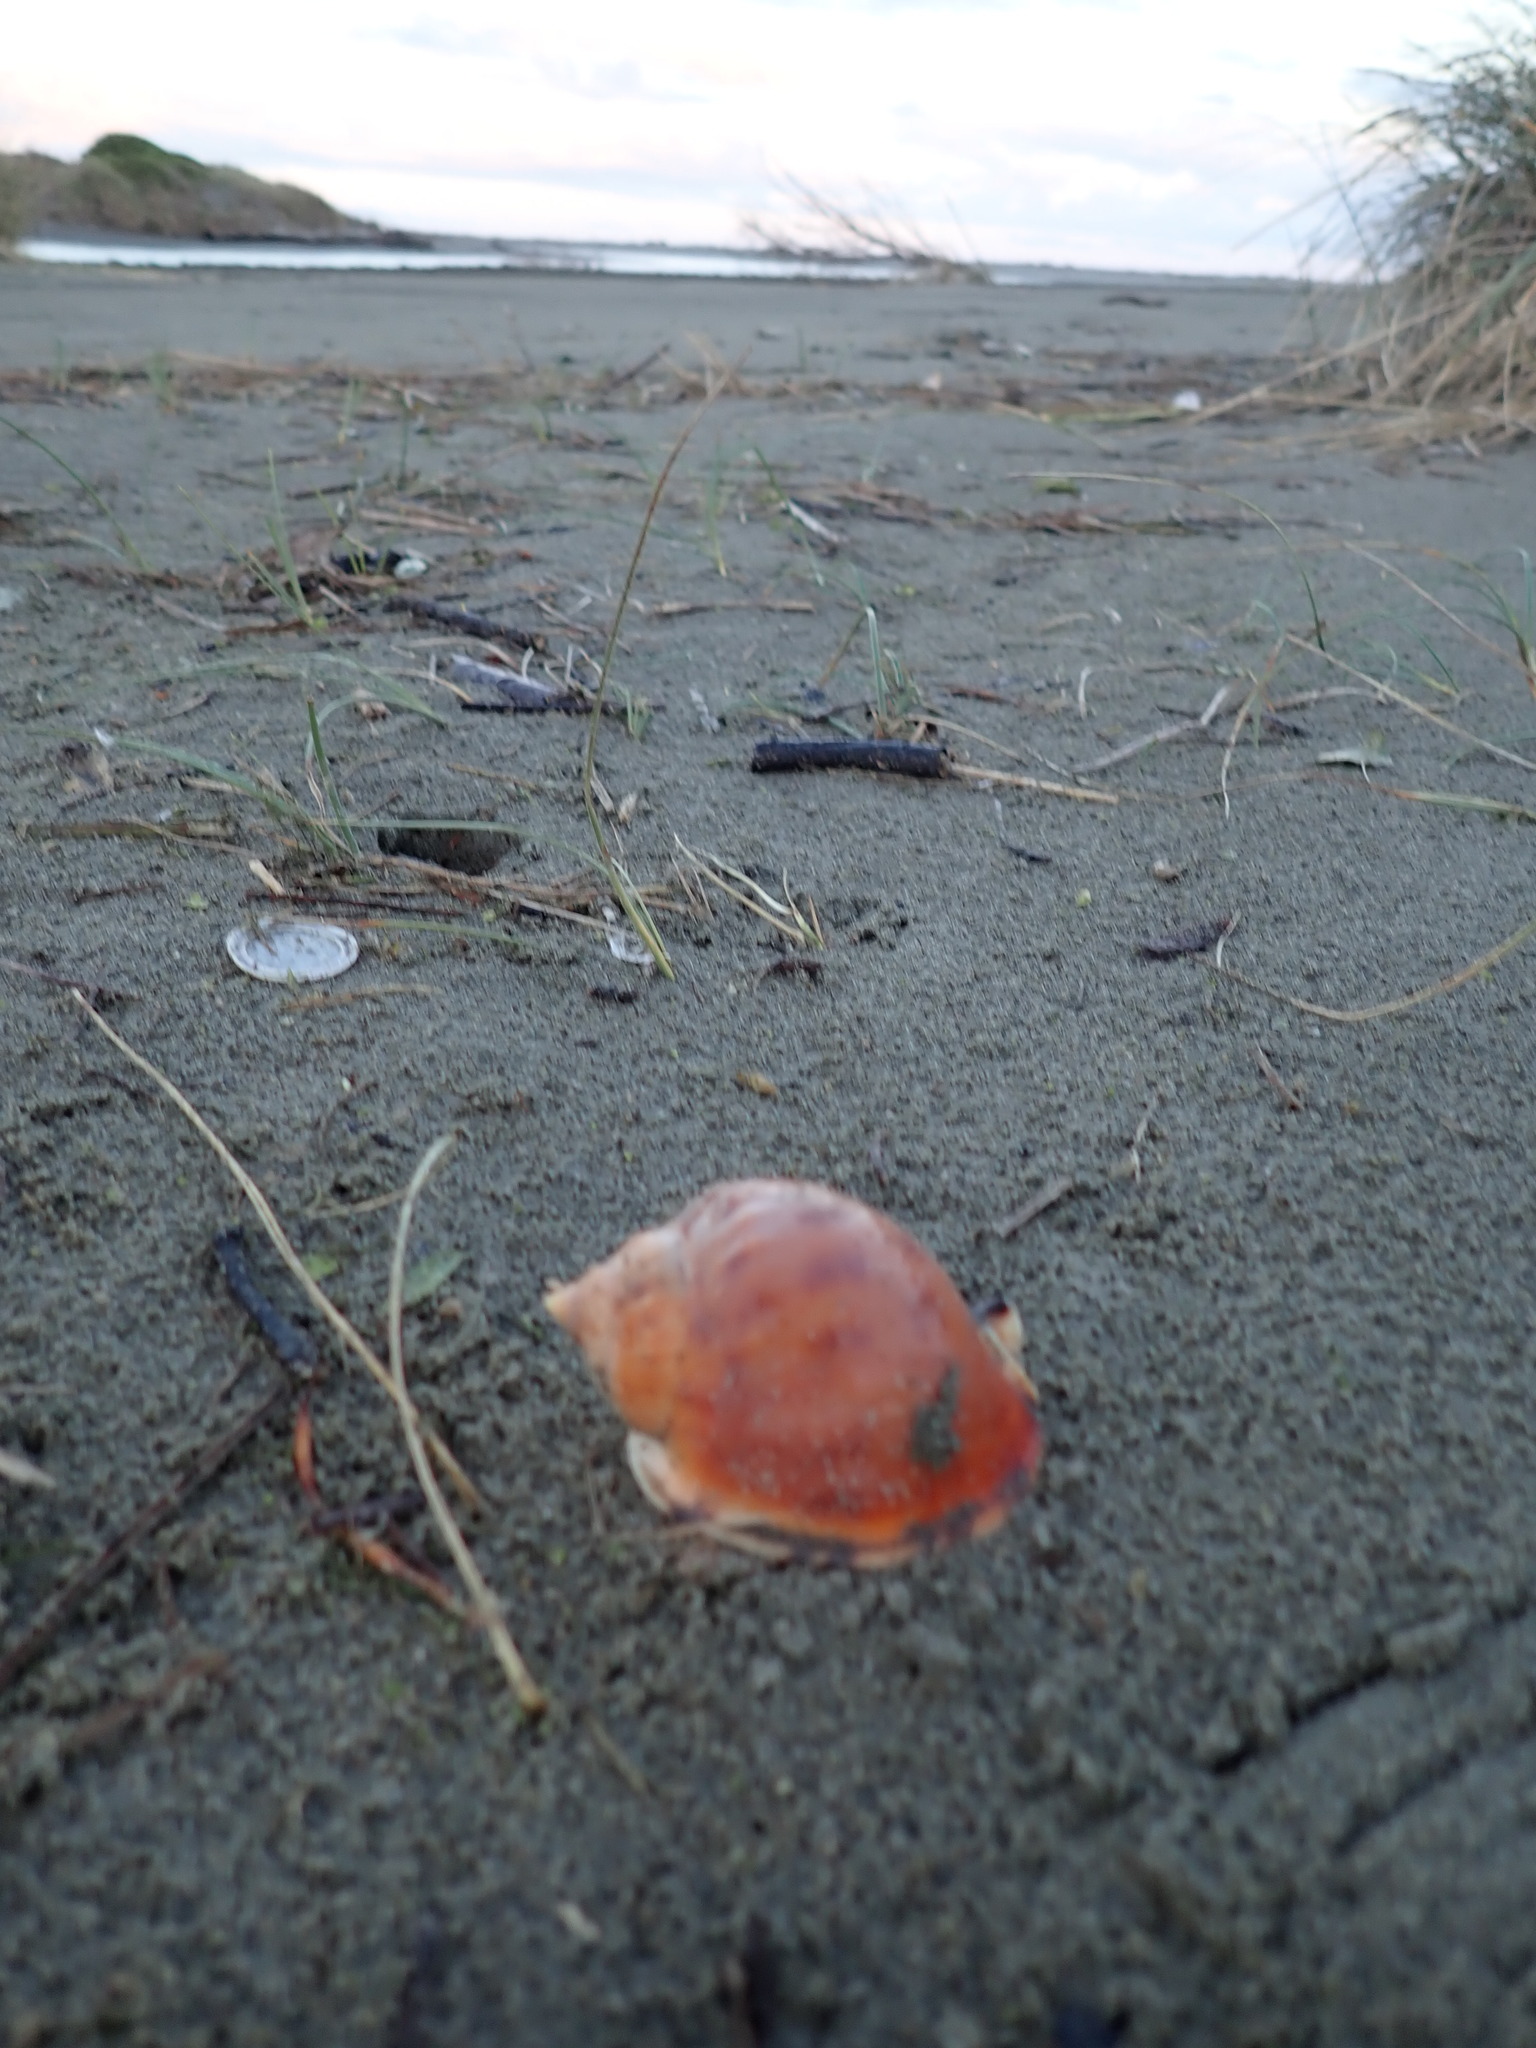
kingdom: Animalia
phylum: Mollusca
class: Gastropoda
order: Littorinimorpha
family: Cassidae
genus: Semicassis
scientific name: Semicassis pyrum
